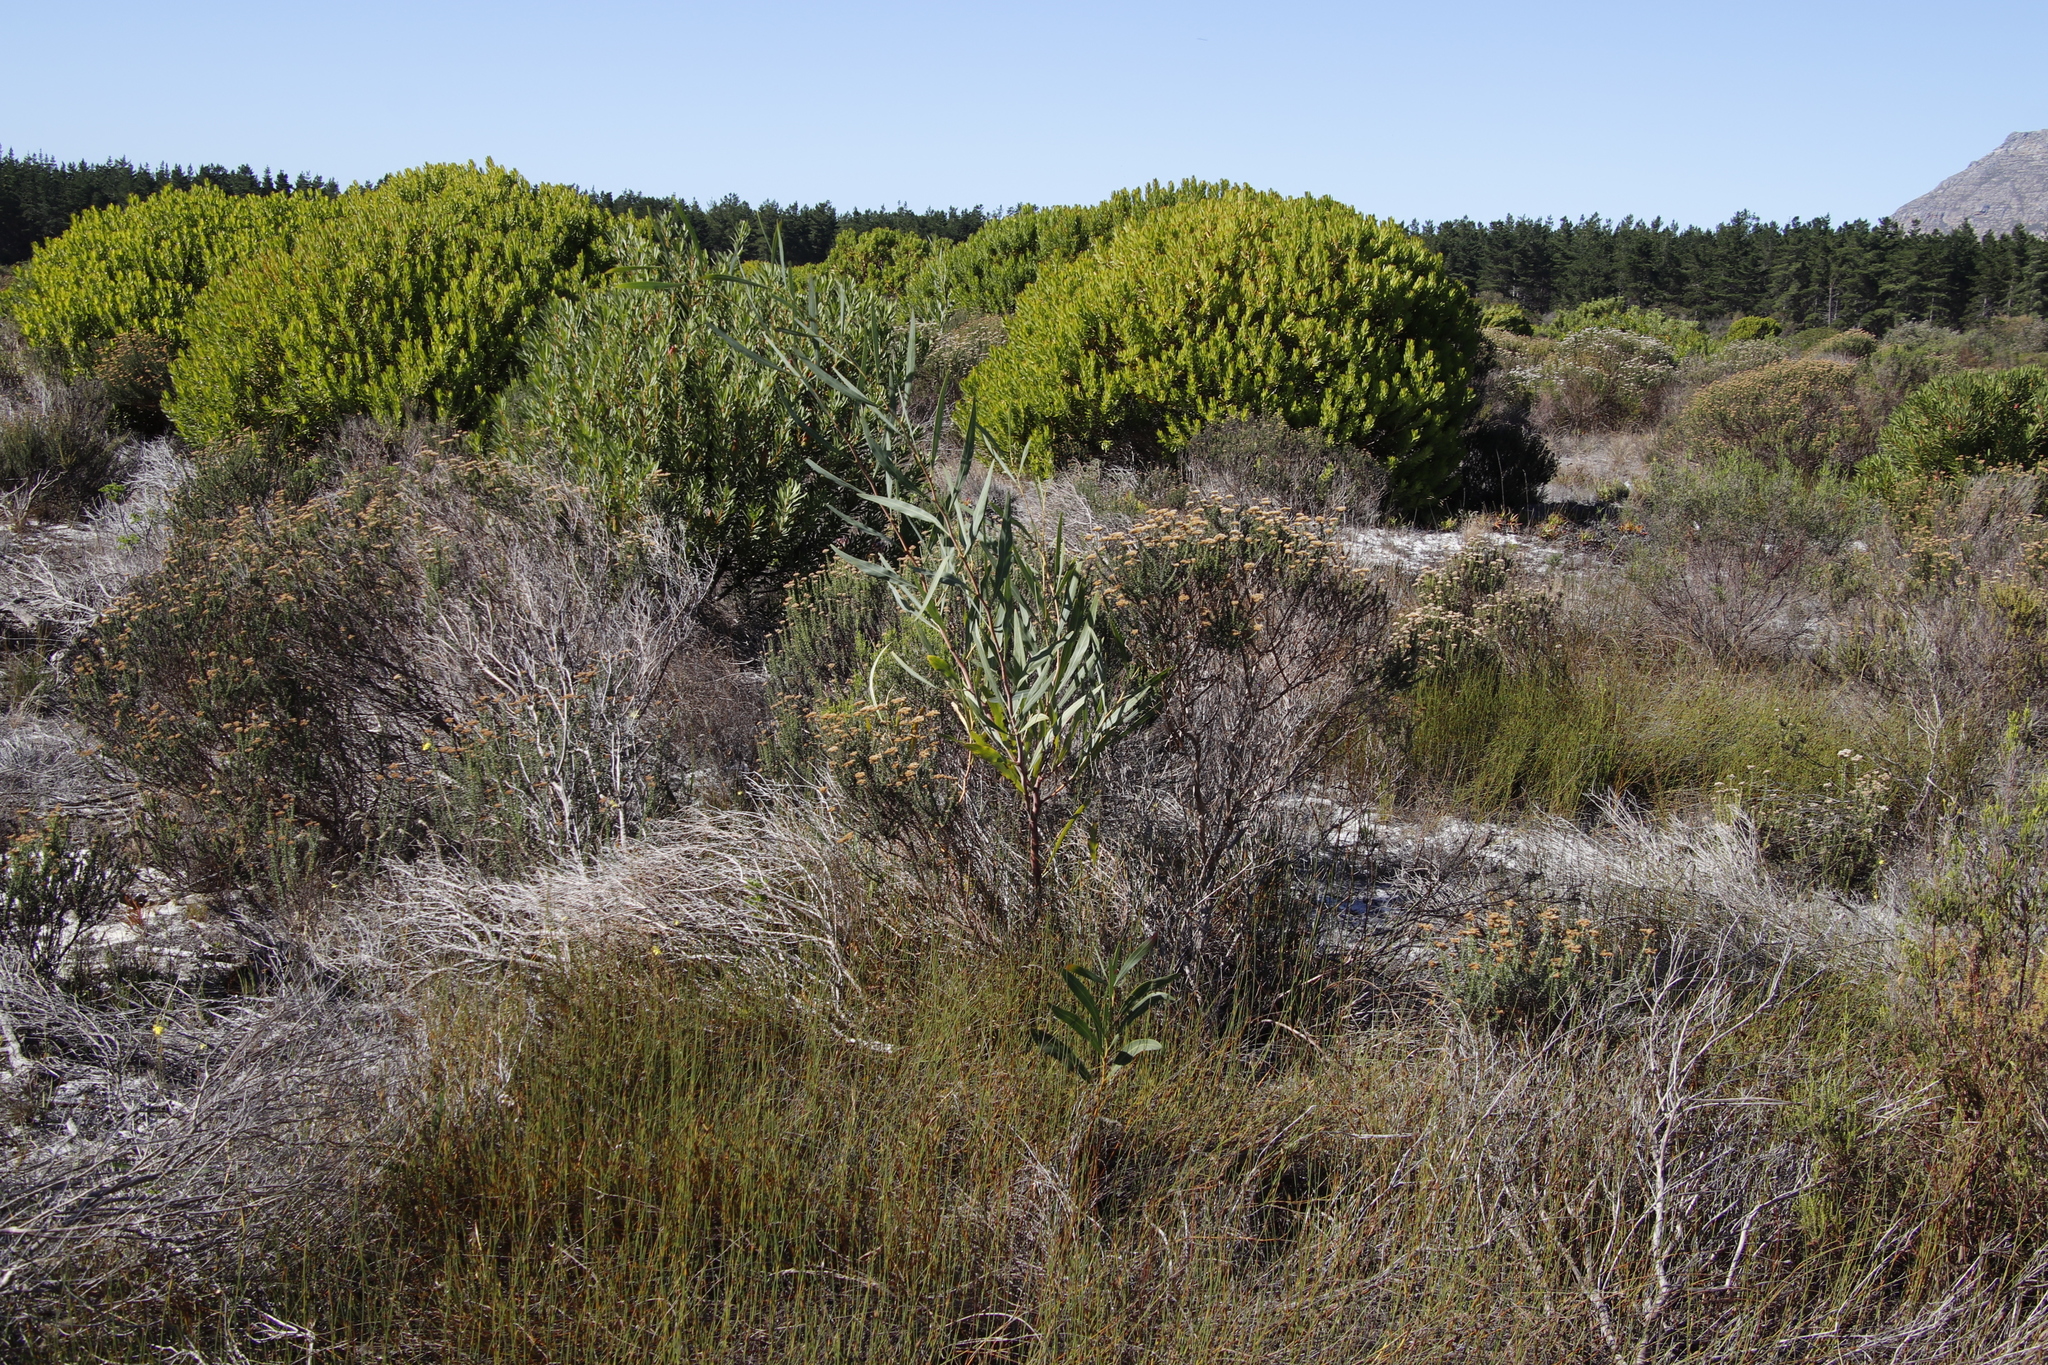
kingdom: Plantae
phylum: Tracheophyta
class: Magnoliopsida
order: Fabales
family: Fabaceae
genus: Acacia
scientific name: Acacia saligna
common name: Orange wattle
